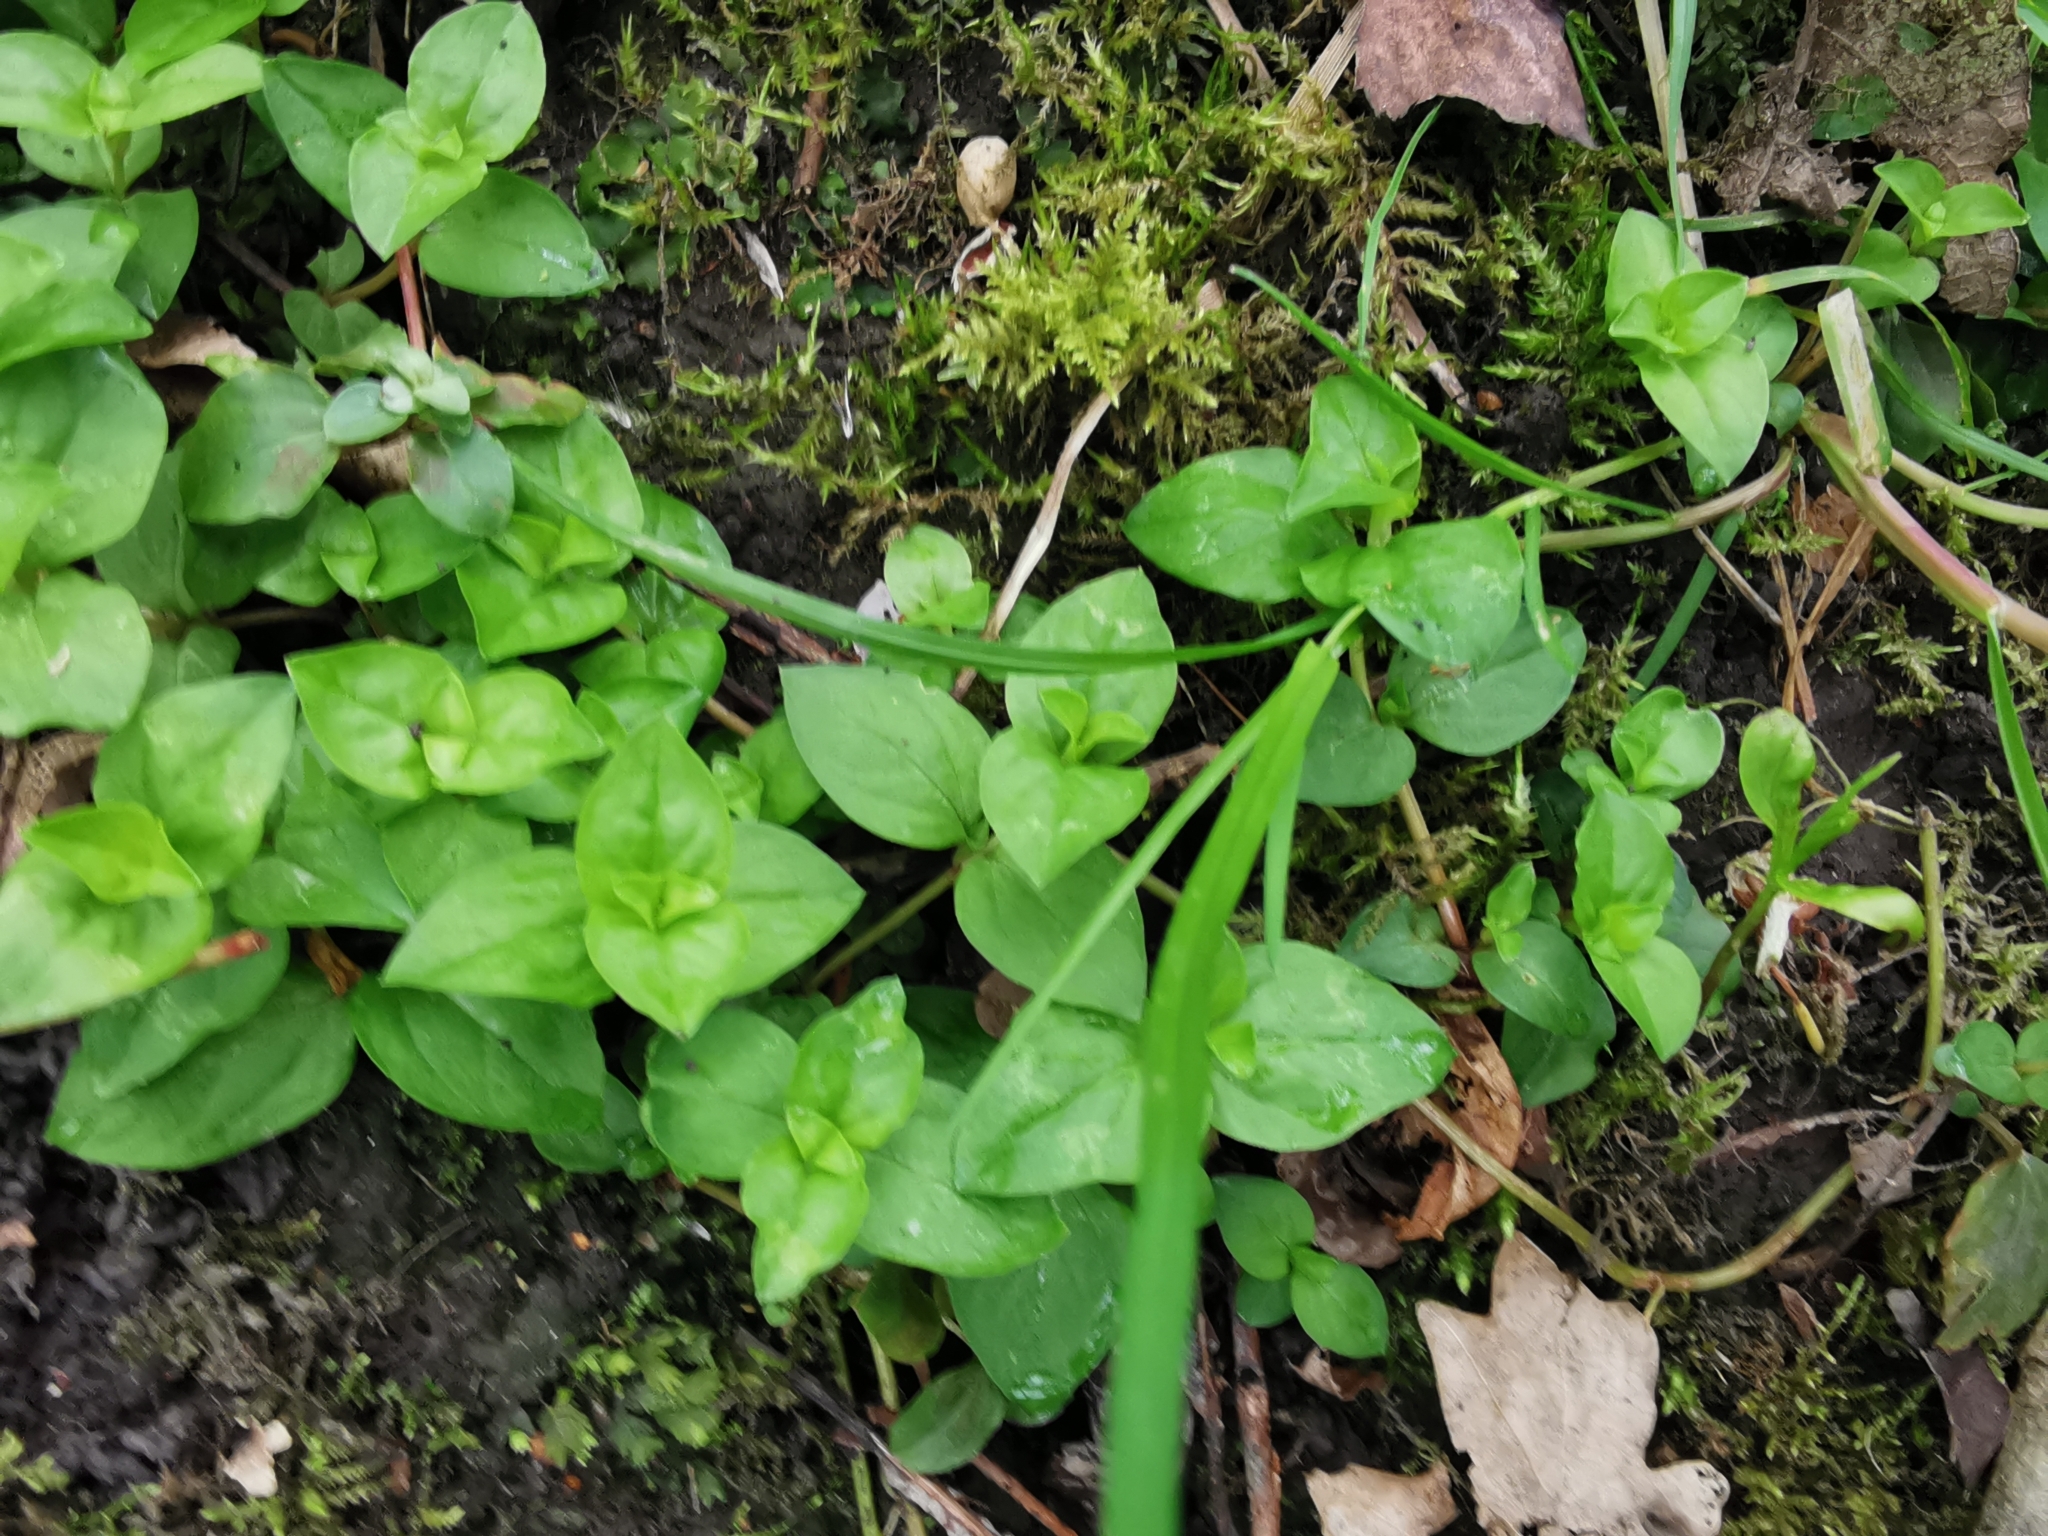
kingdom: Plantae
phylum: Tracheophyta
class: Magnoliopsida
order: Ericales
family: Primulaceae
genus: Lysimachia
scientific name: Lysimachia nemorum
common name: Yellow pimpernel
